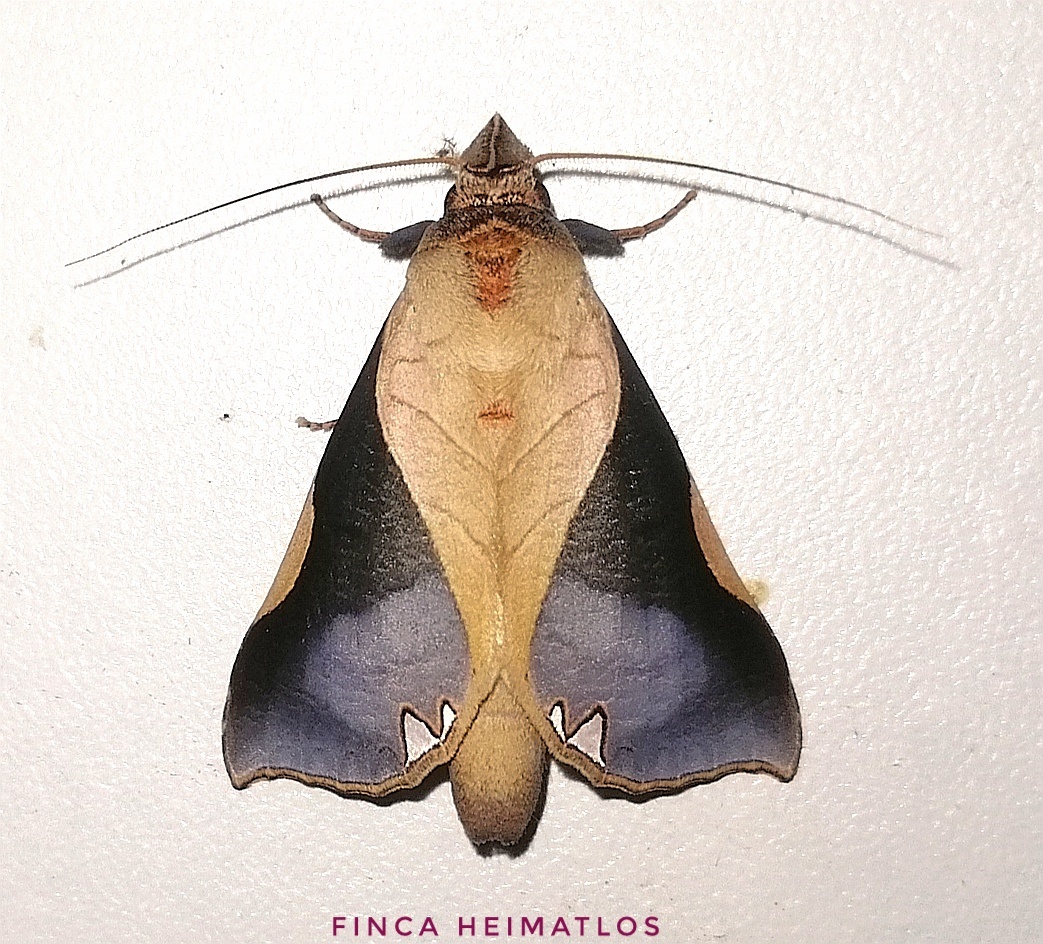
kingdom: Animalia
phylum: Arthropoda
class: Insecta
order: Lepidoptera
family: Notodontidae
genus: Strophocerus
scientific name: Strophocerus cossoides
